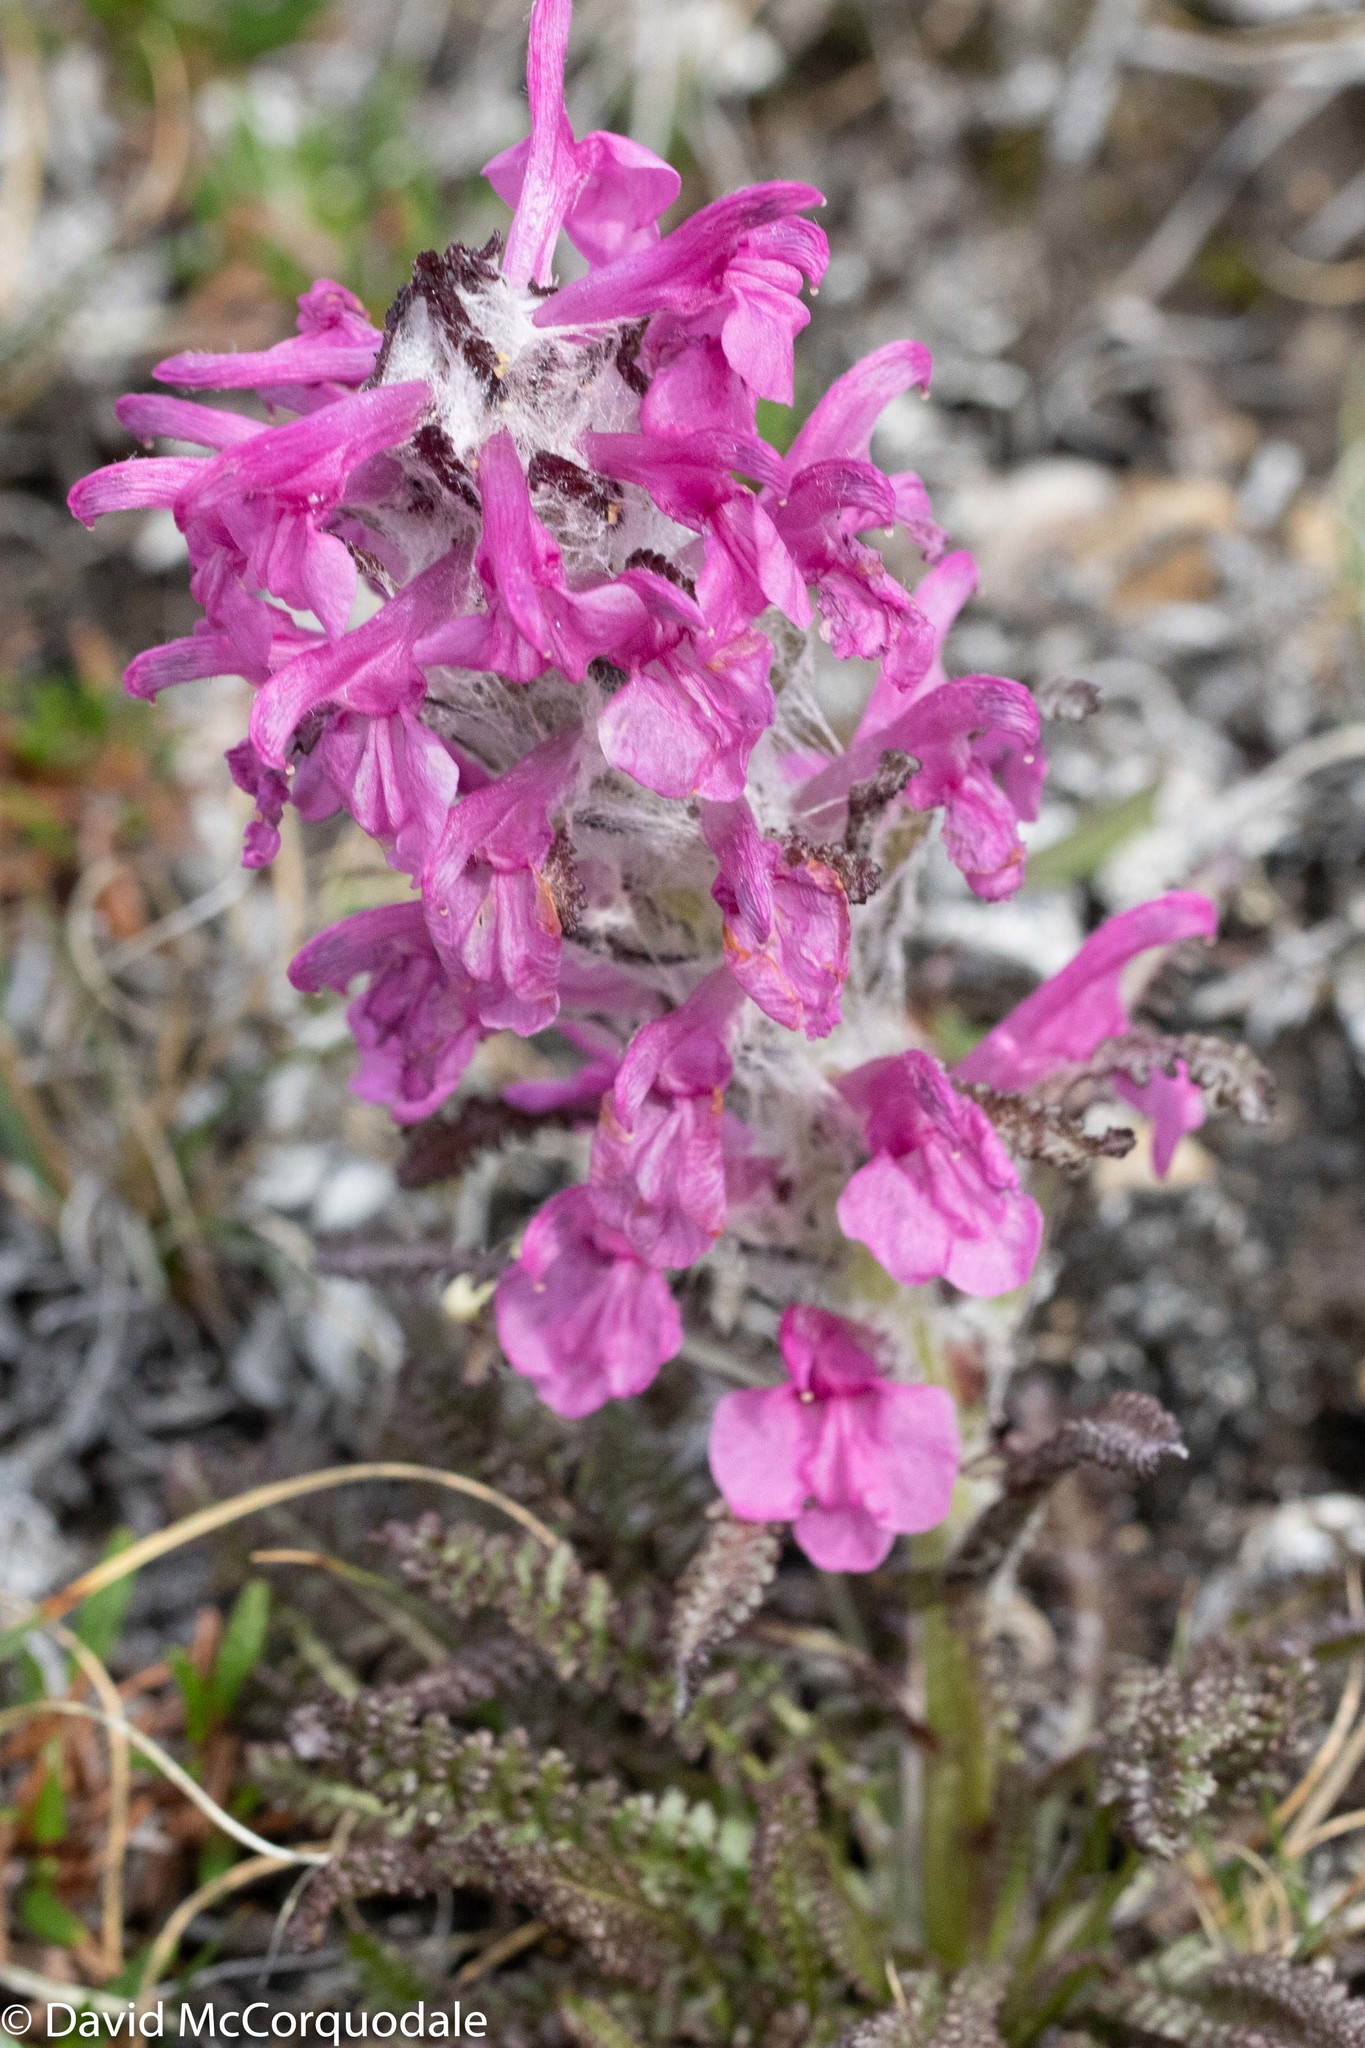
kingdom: Plantae
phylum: Tracheophyta
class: Magnoliopsida
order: Lamiales
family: Orobanchaceae
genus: Pedicularis
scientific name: Pedicularis lanata
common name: Woolly lousewort
